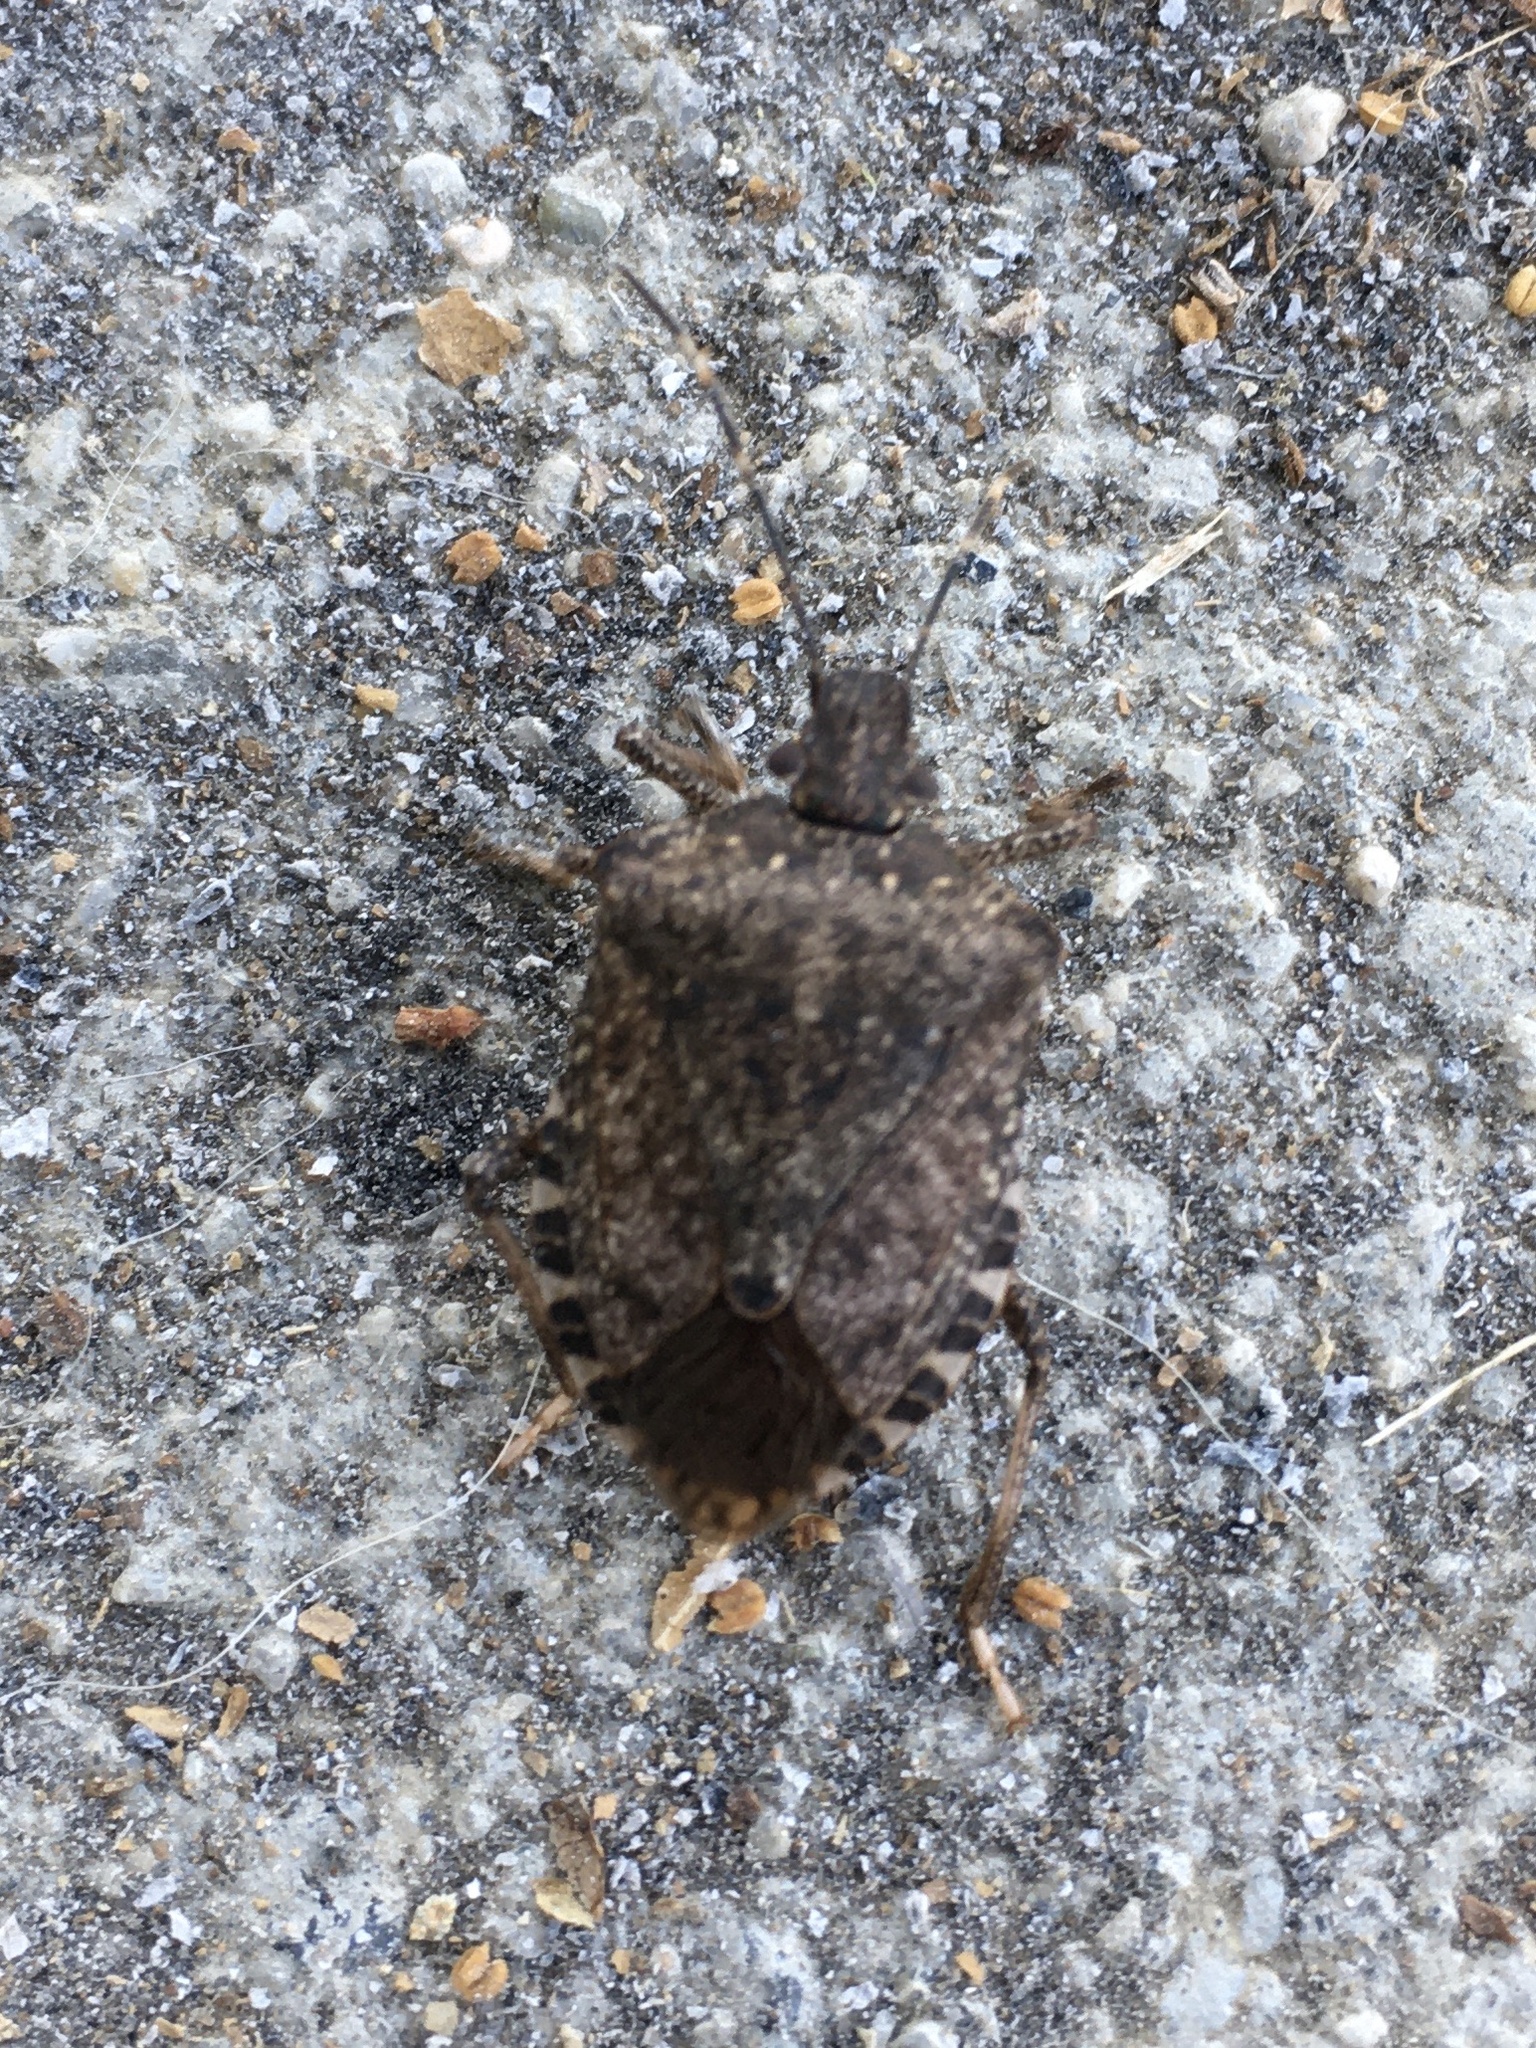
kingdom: Animalia
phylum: Arthropoda
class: Insecta
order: Hemiptera
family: Pentatomidae
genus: Halyomorpha
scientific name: Halyomorpha halys
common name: Brown marmorated stink bug
